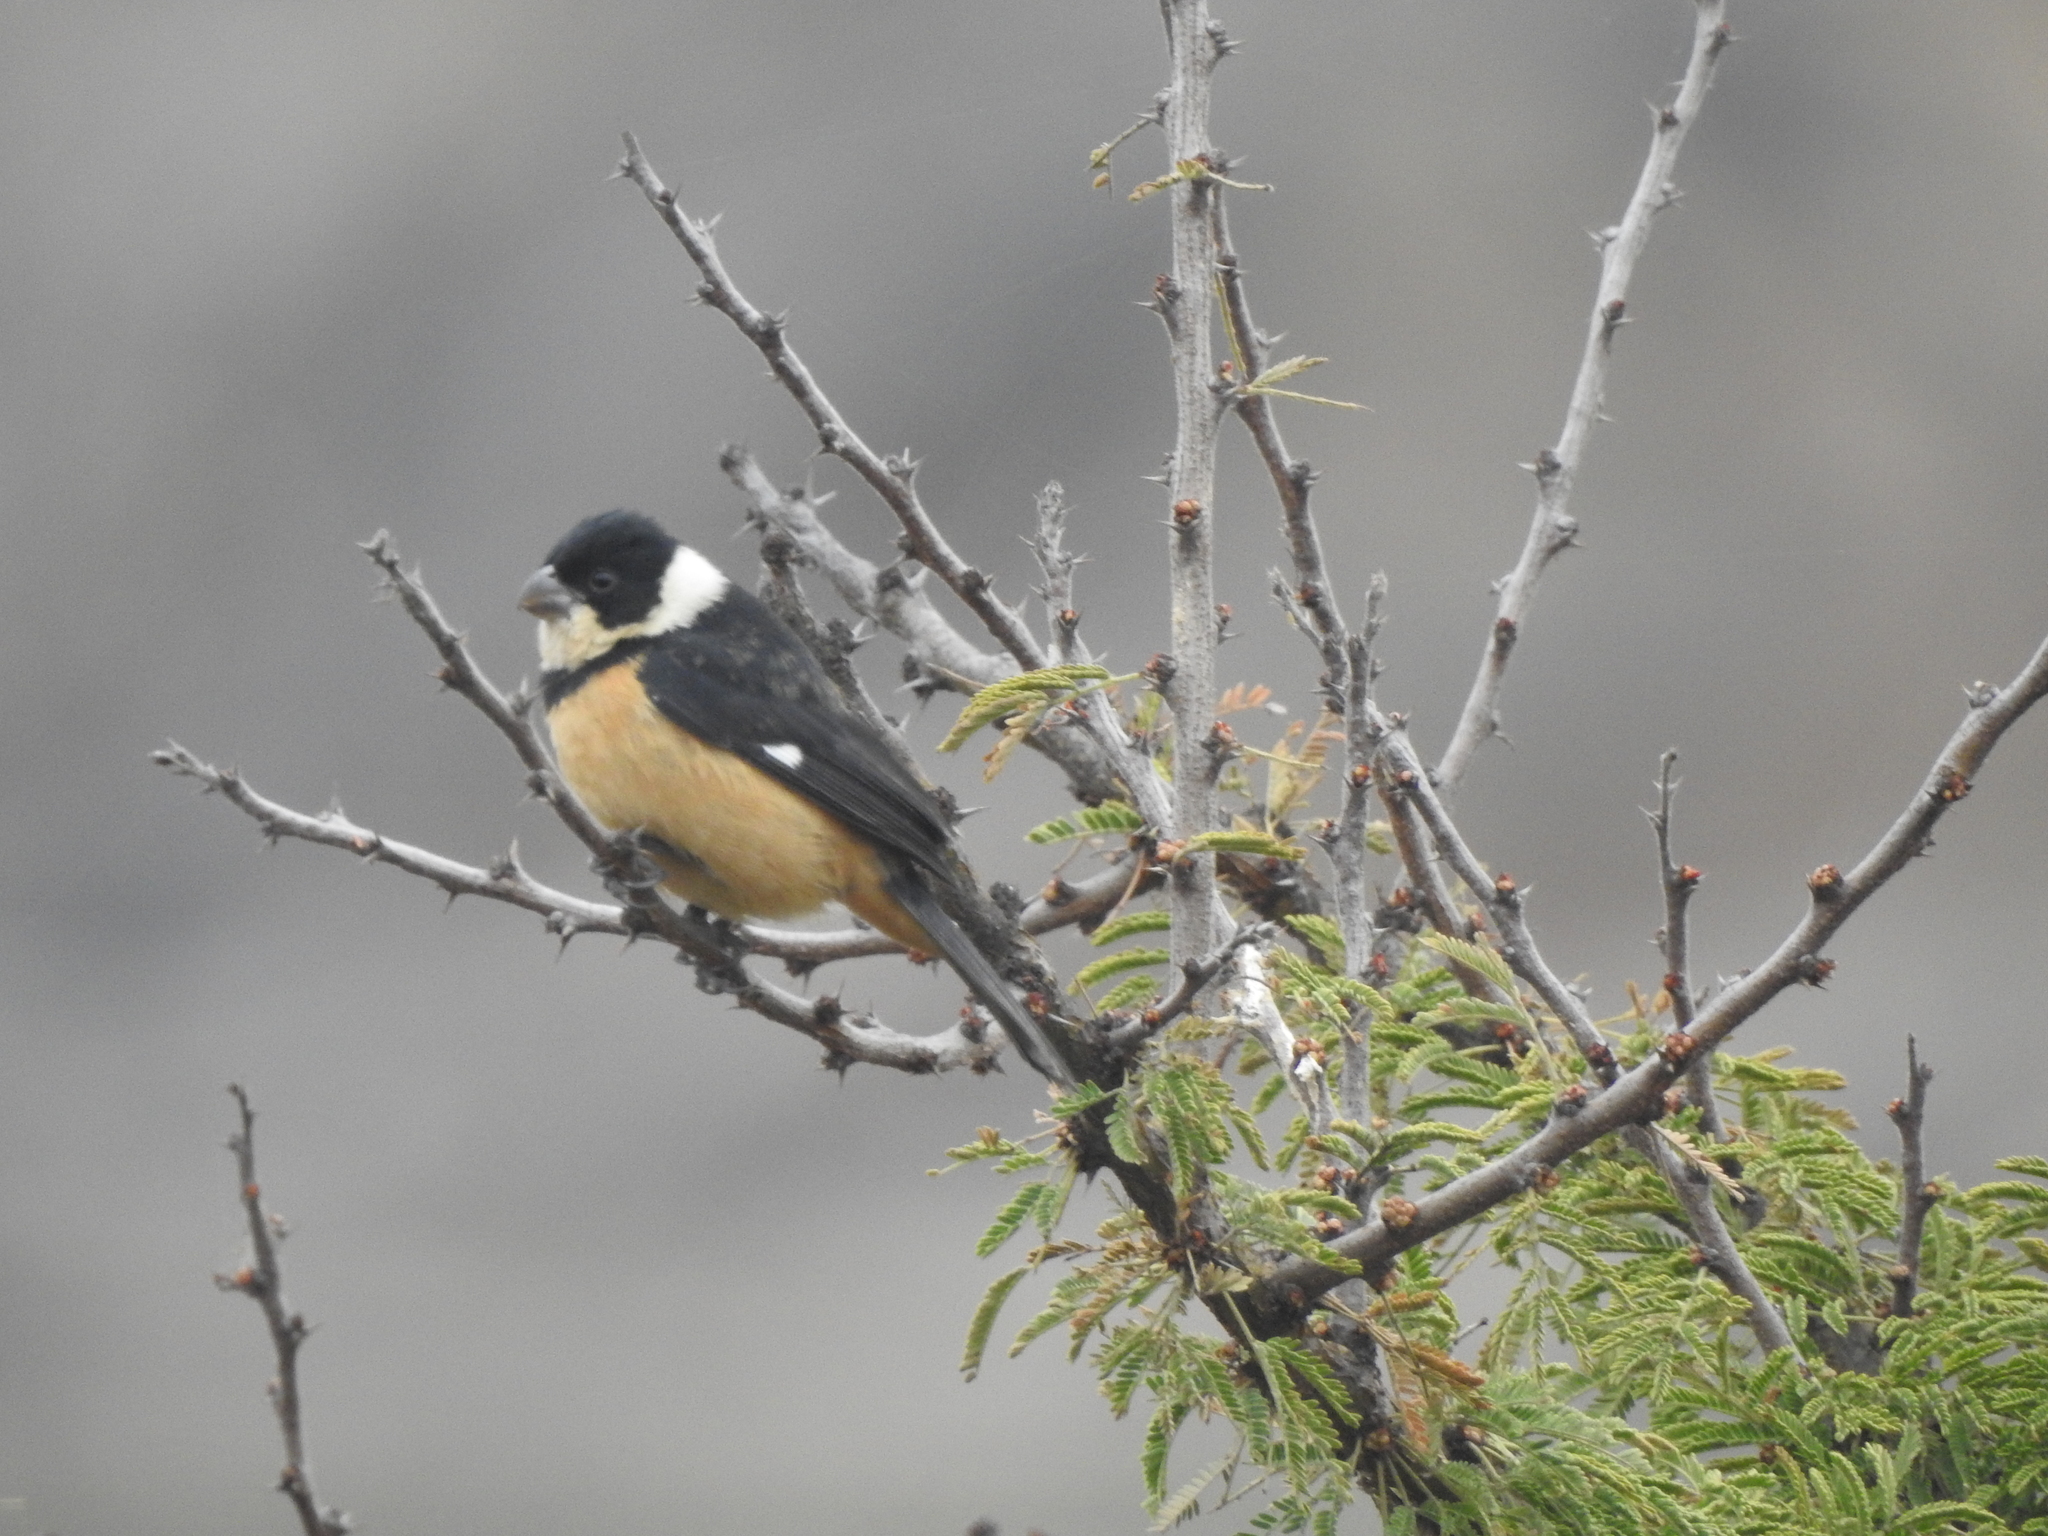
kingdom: Animalia
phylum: Chordata
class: Aves
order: Passeriformes
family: Thraupidae
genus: Sporophila
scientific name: Sporophila torqueola
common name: White-collared seedeater
